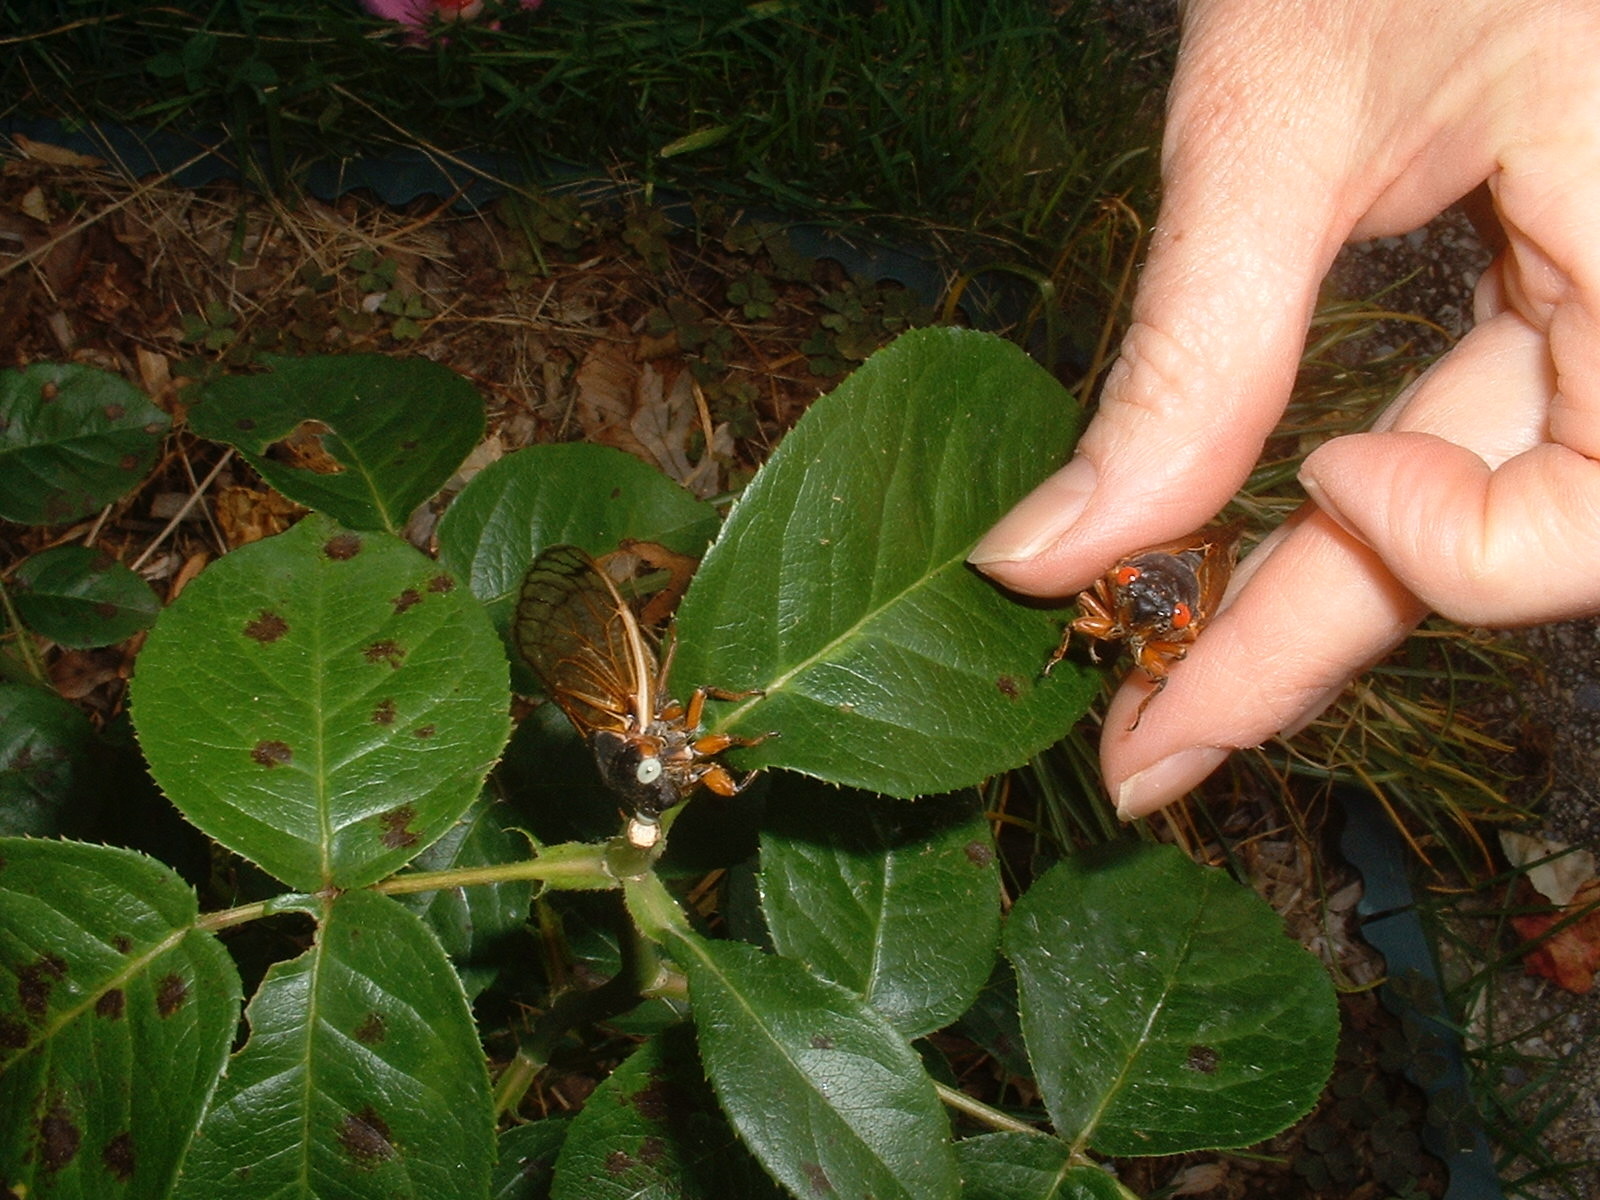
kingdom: Animalia
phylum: Arthropoda
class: Insecta
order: Hemiptera
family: Cicadidae
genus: Magicicada
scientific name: Magicicada septendecim
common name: Periodical cicada
